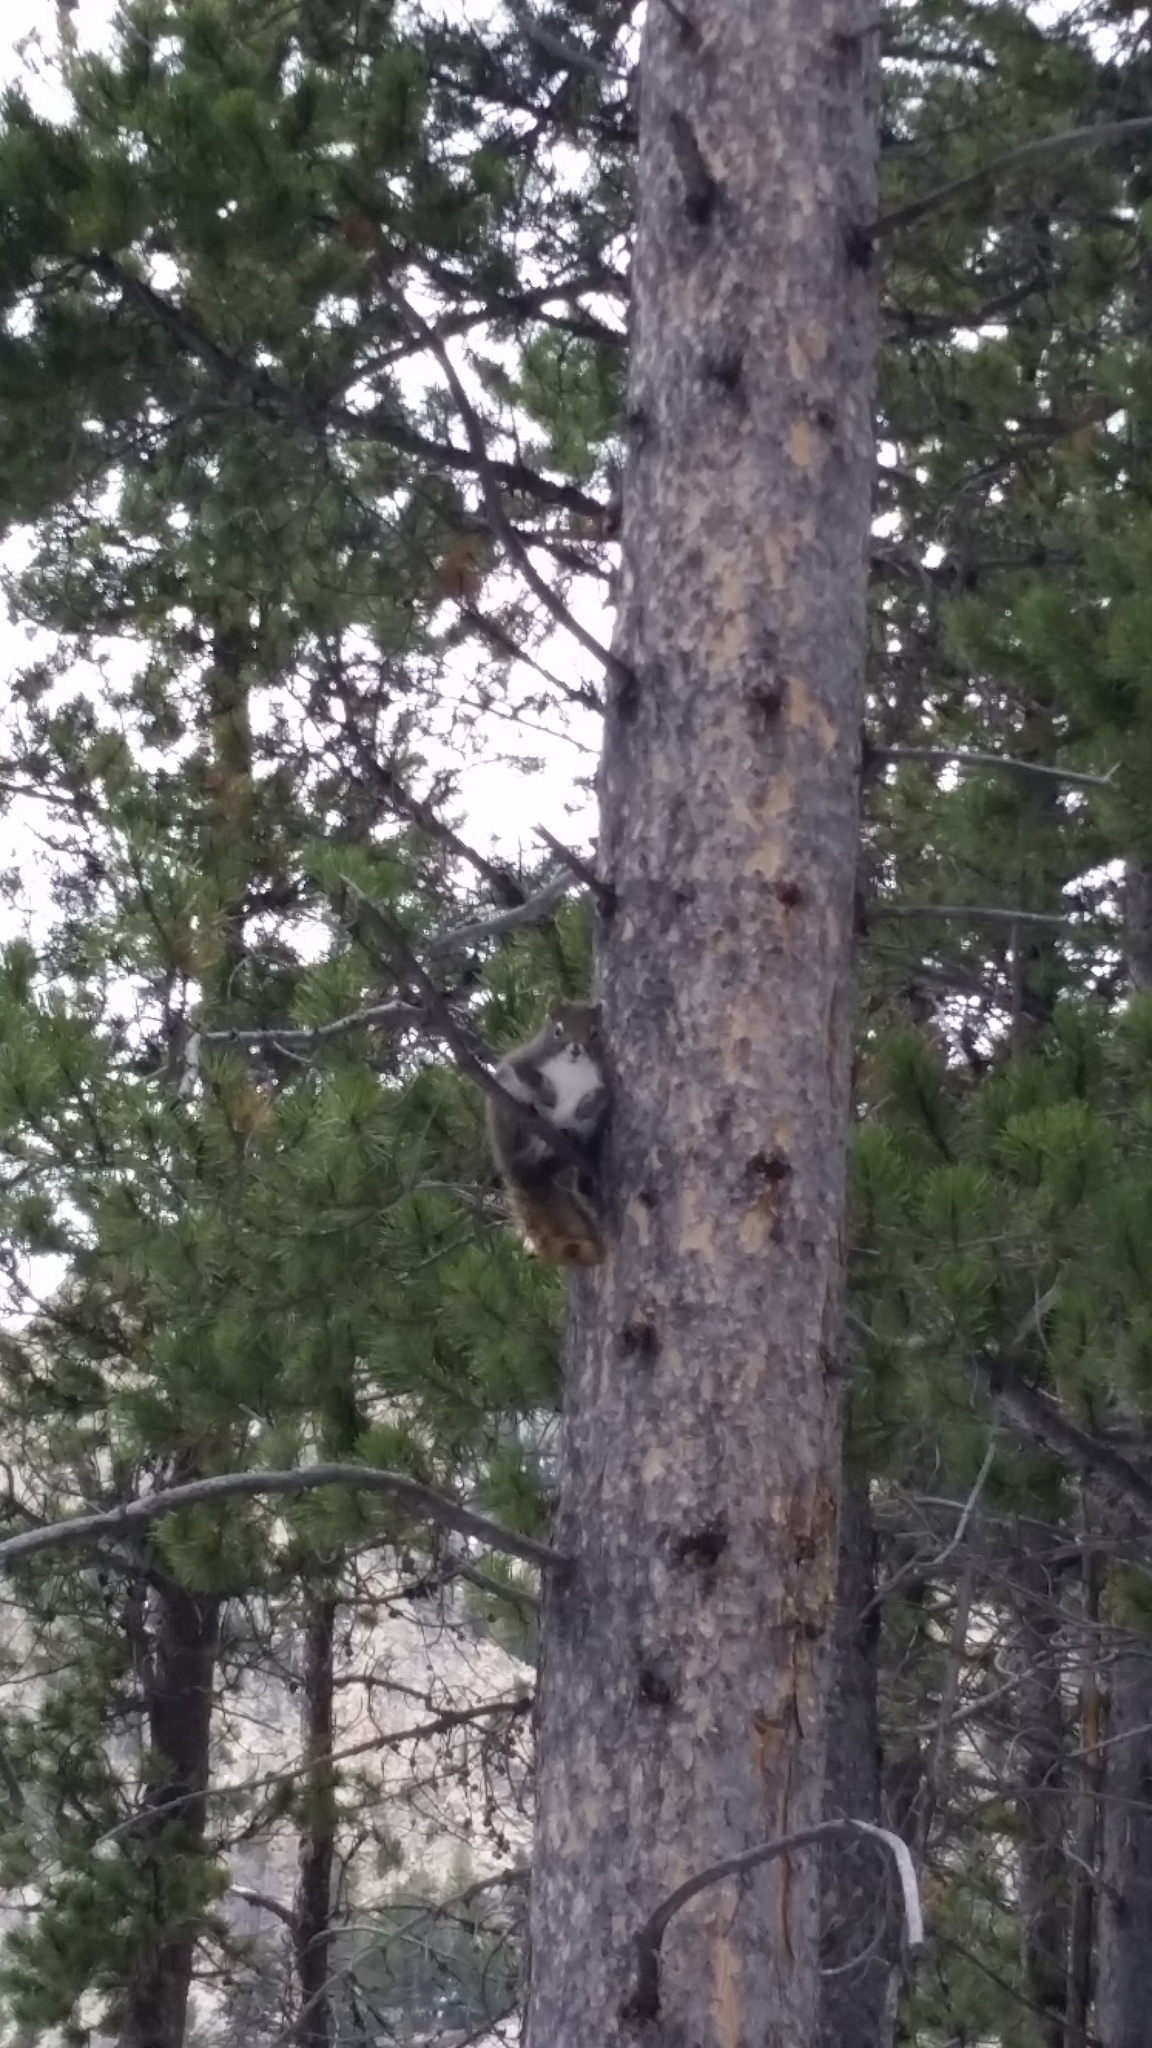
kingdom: Animalia
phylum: Chordata
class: Mammalia
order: Rodentia
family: Sciuridae
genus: Tamiasciurus
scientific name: Tamiasciurus hudsonicus
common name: Red squirrel
